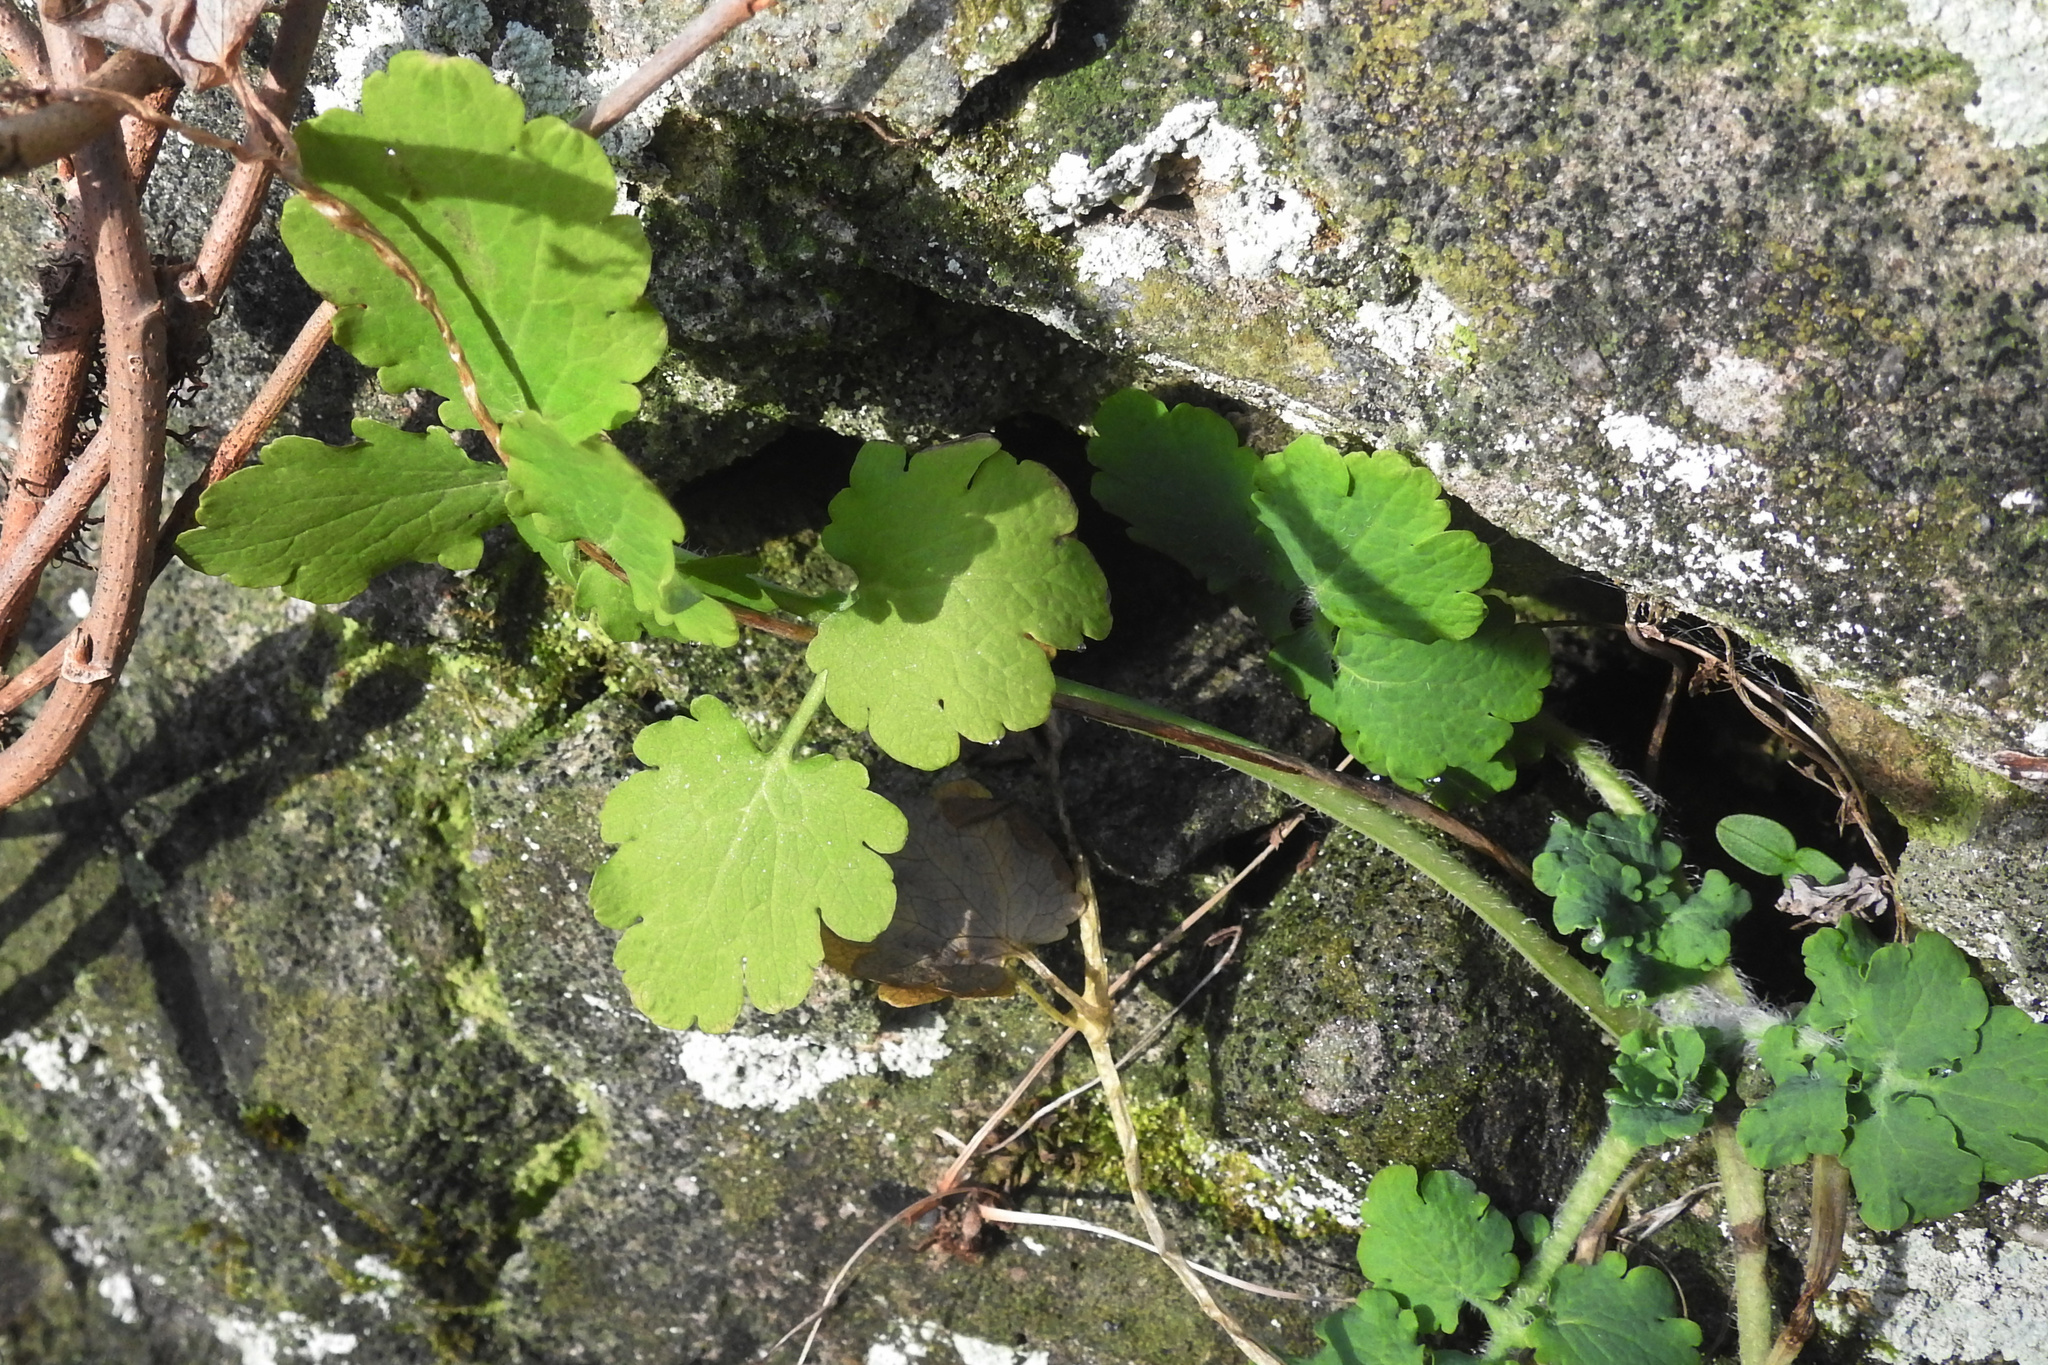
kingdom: Plantae
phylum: Tracheophyta
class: Magnoliopsida
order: Ranunculales
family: Papaveraceae
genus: Chelidonium
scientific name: Chelidonium majus
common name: Greater celandine
